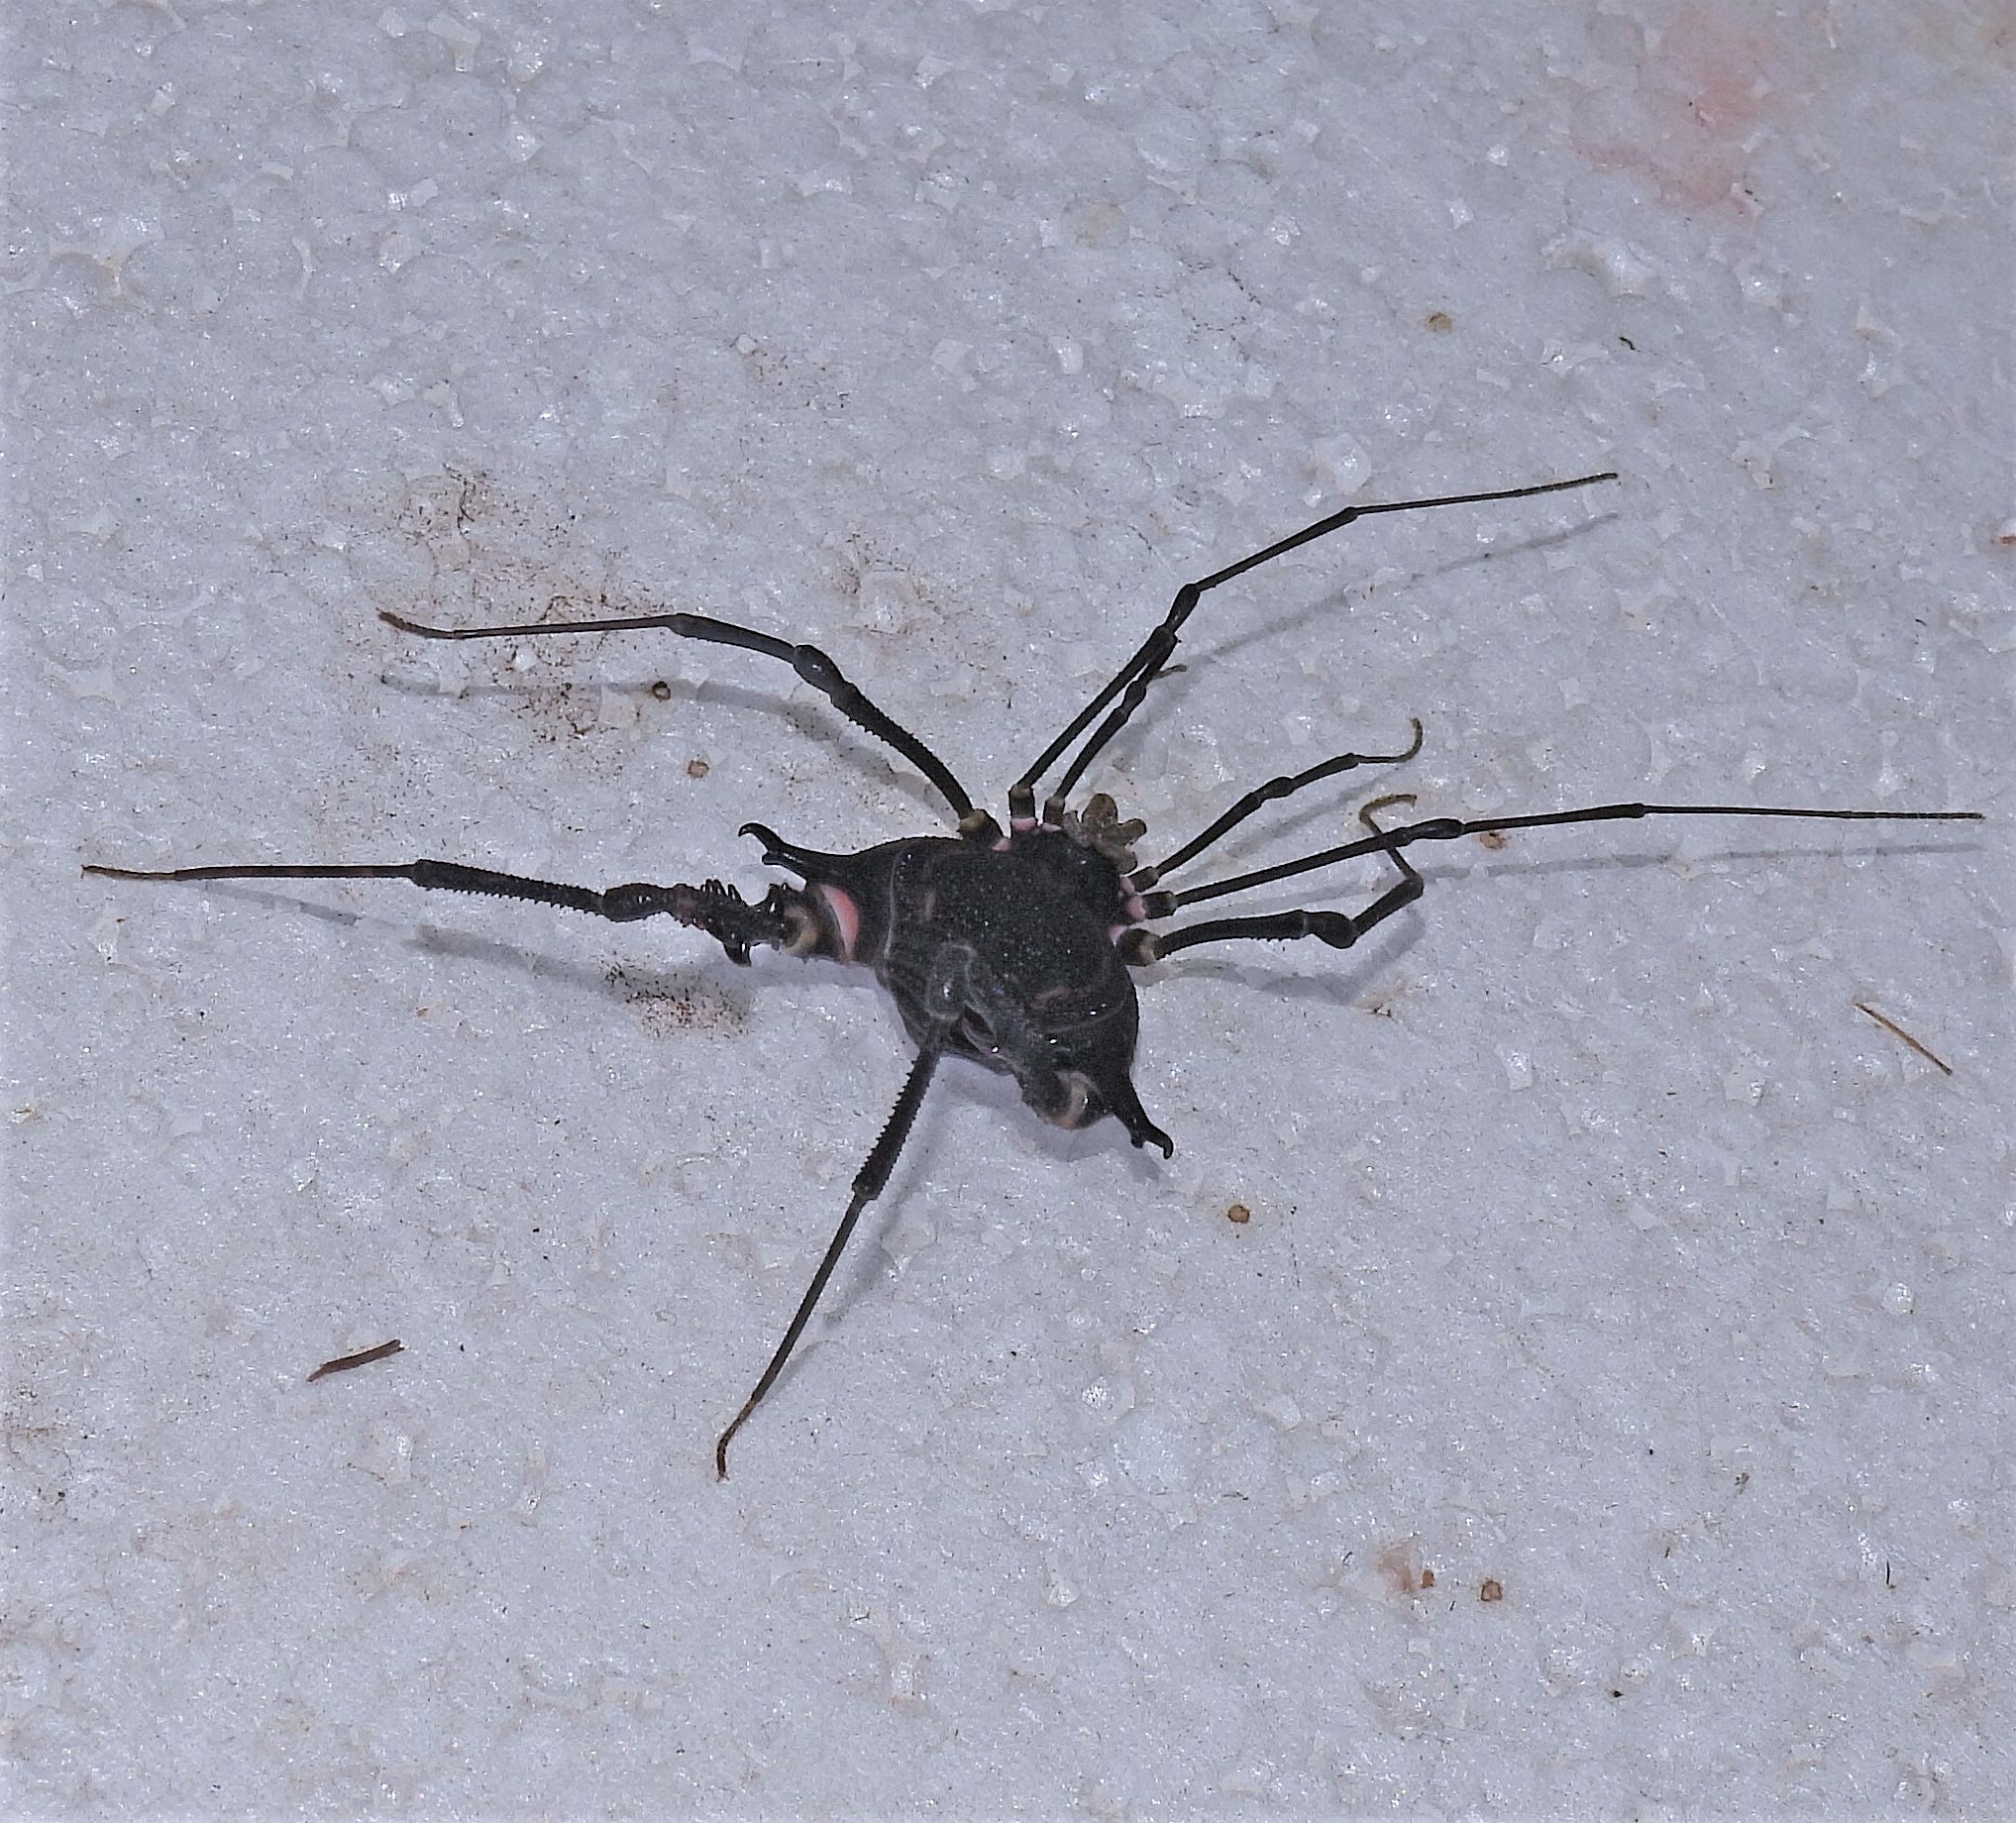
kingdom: Animalia
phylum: Arthropoda
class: Arachnida
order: Opiliones
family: Gonyleptidae
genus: Geraeocormobius
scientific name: Geraeocormobius sylvarum
